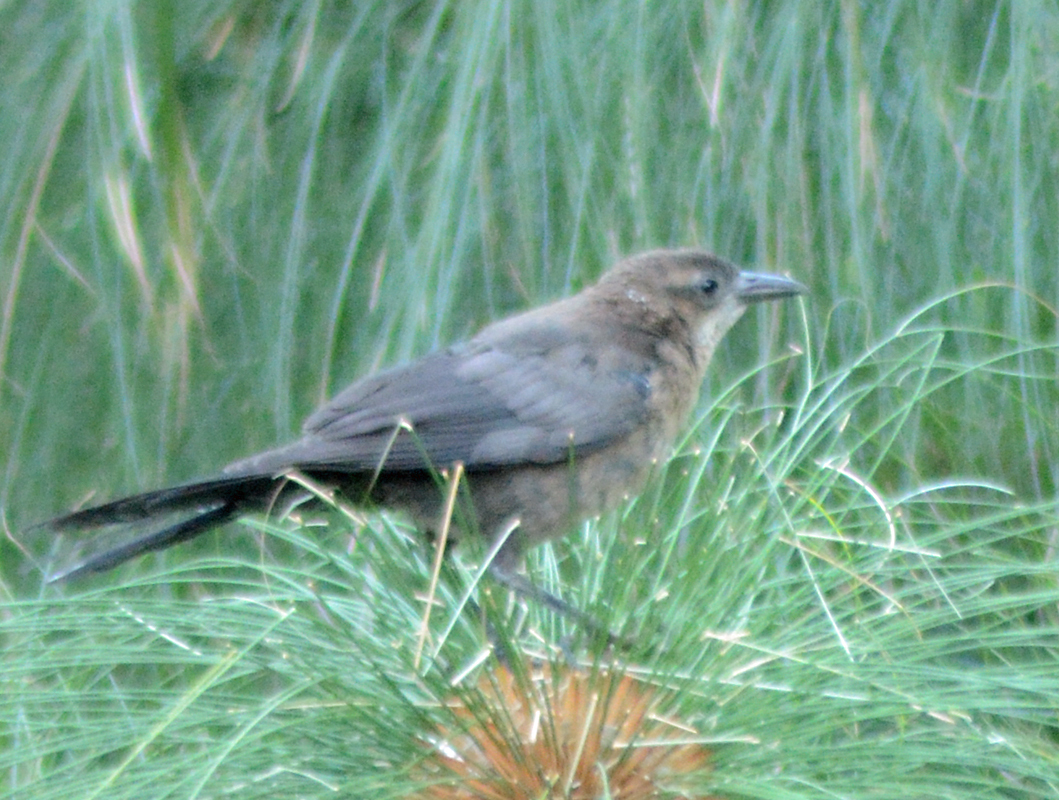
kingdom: Animalia
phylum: Chordata
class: Aves
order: Passeriformes
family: Icteridae
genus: Quiscalus
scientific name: Quiscalus mexicanus
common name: Great-tailed grackle
